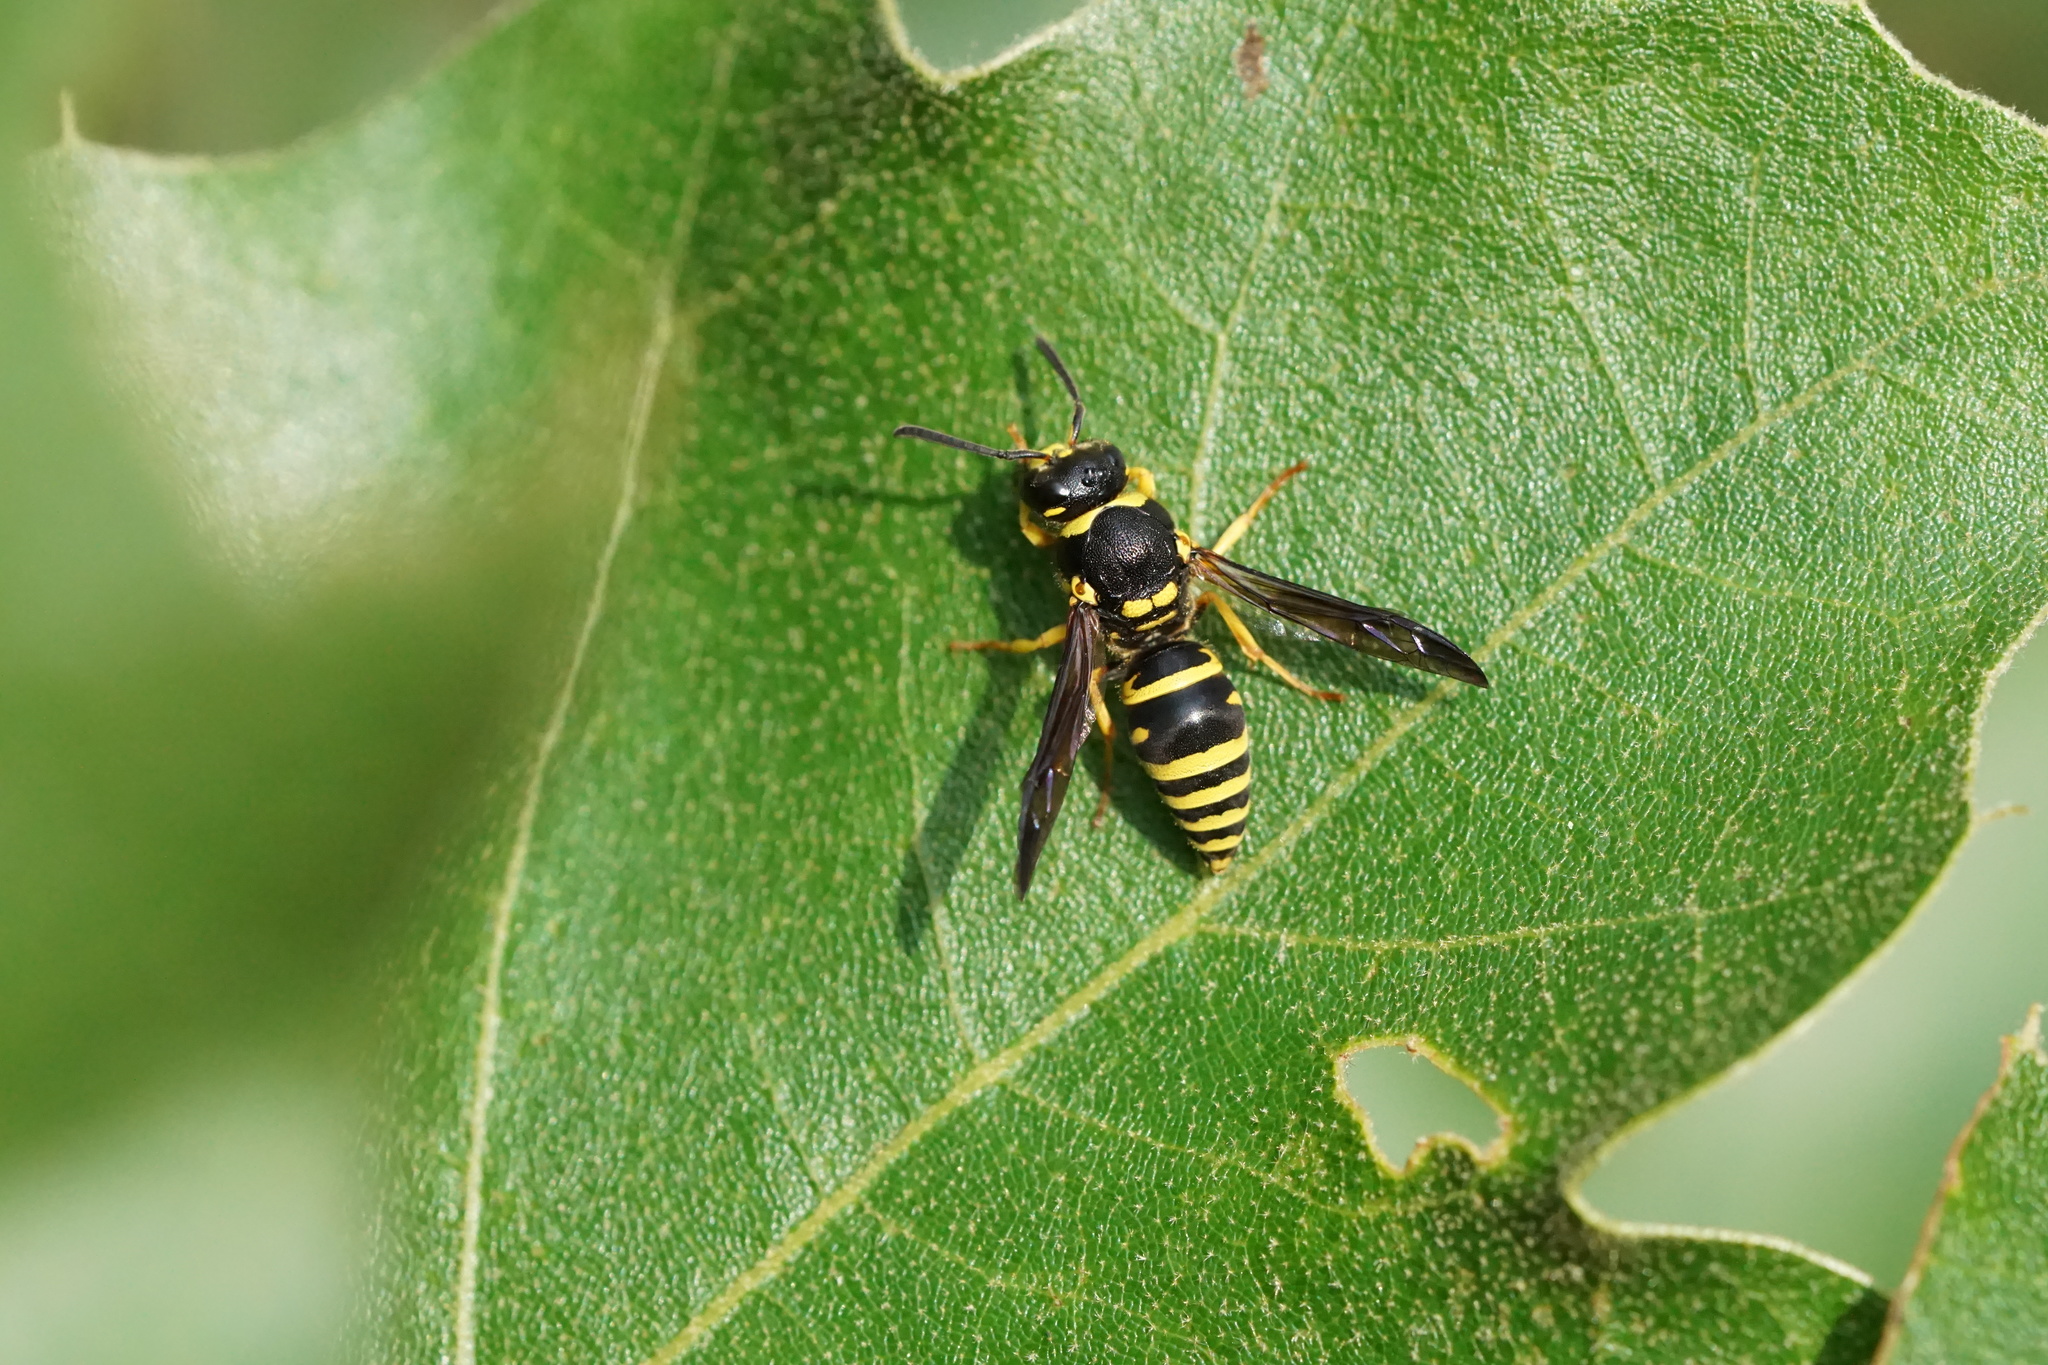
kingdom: Animalia
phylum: Arthropoda
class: Insecta
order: Hymenoptera
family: Vespidae
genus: Ancistrocerus
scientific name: Ancistrocerus lutonidus
